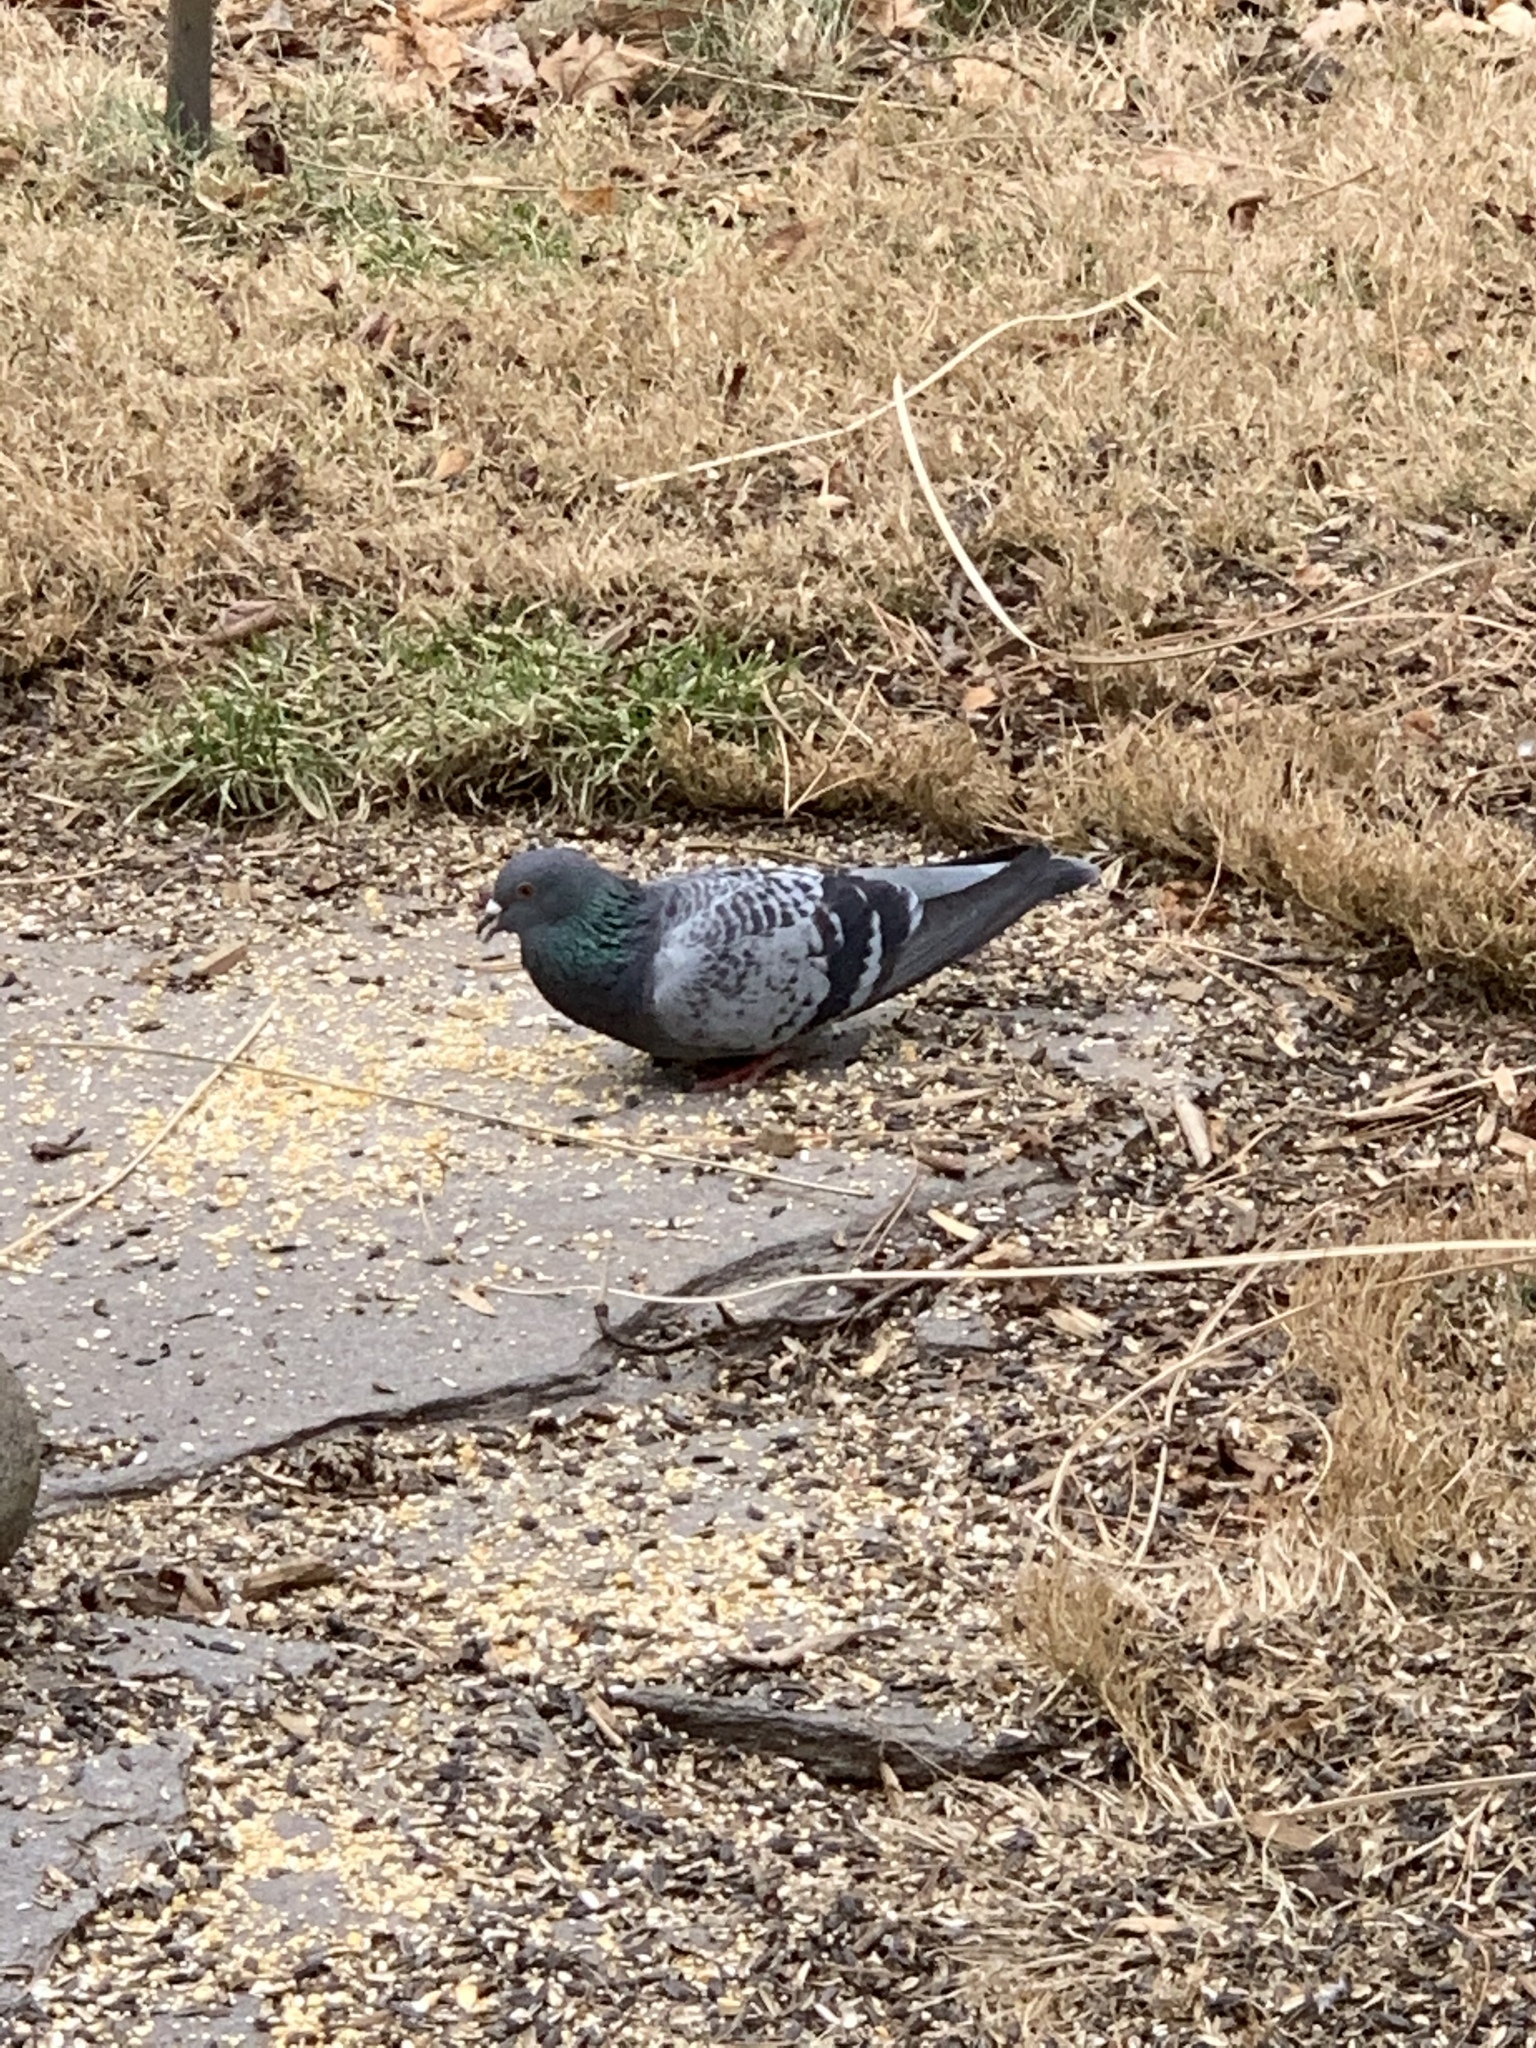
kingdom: Animalia
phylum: Chordata
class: Aves
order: Columbiformes
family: Columbidae
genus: Columba
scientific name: Columba livia
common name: Rock pigeon
